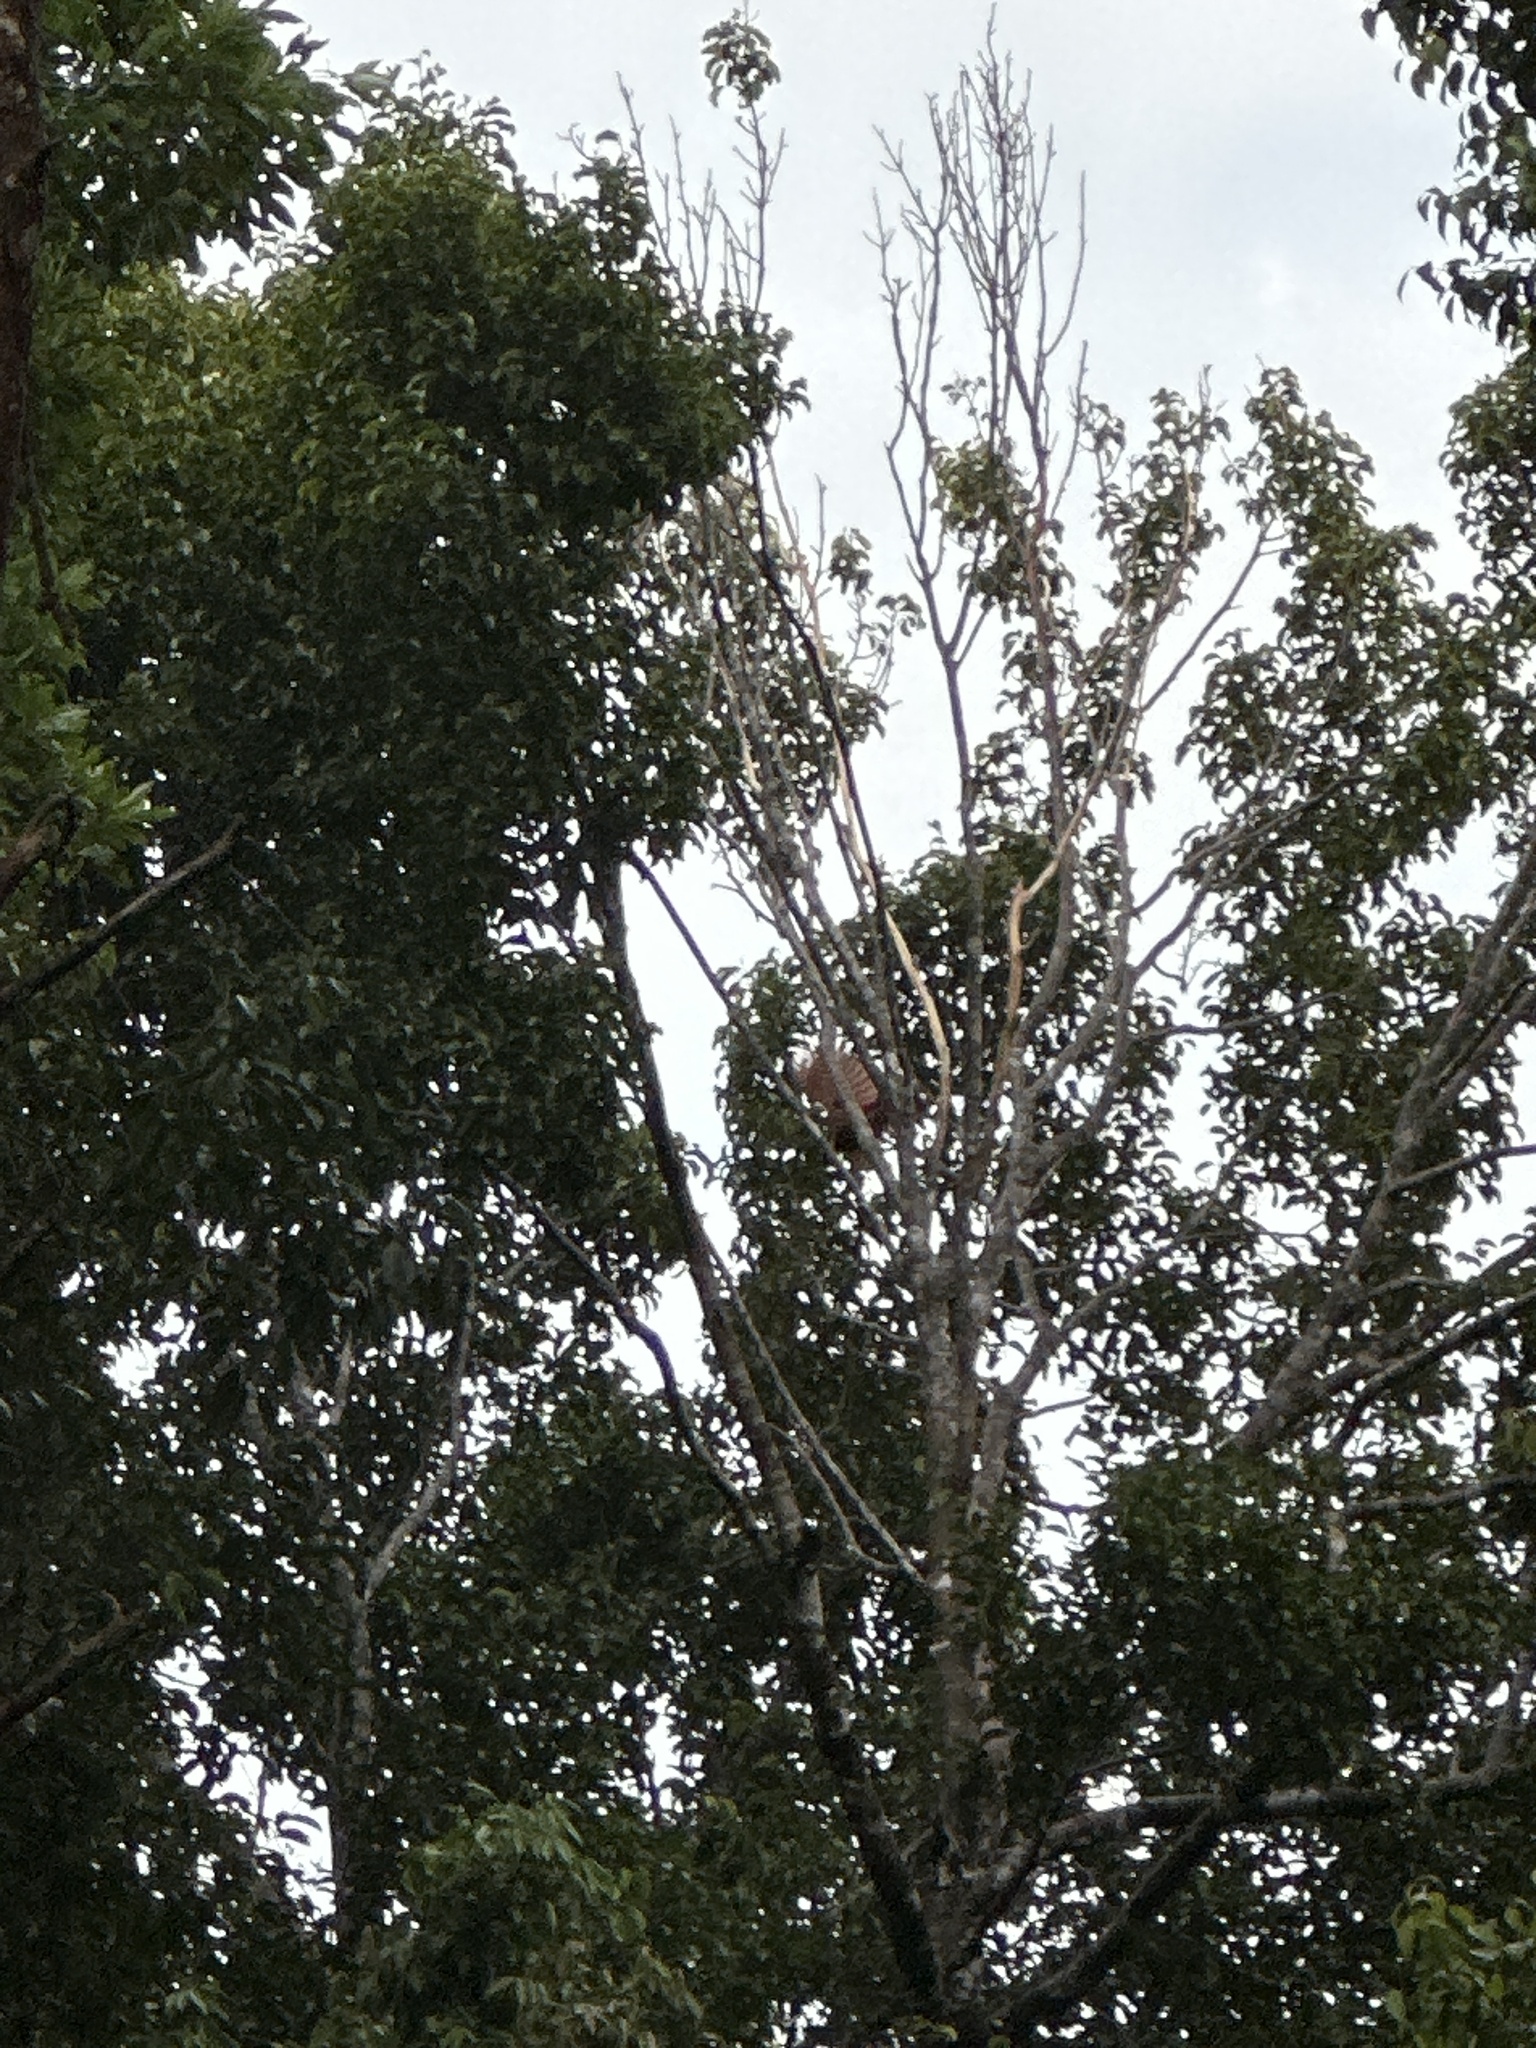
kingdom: Animalia
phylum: Chordata
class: Aves
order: Passeriformes
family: Paradisaeidae
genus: Paradisaea
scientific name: Paradisaea rubra
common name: Red bird-of-paradise
